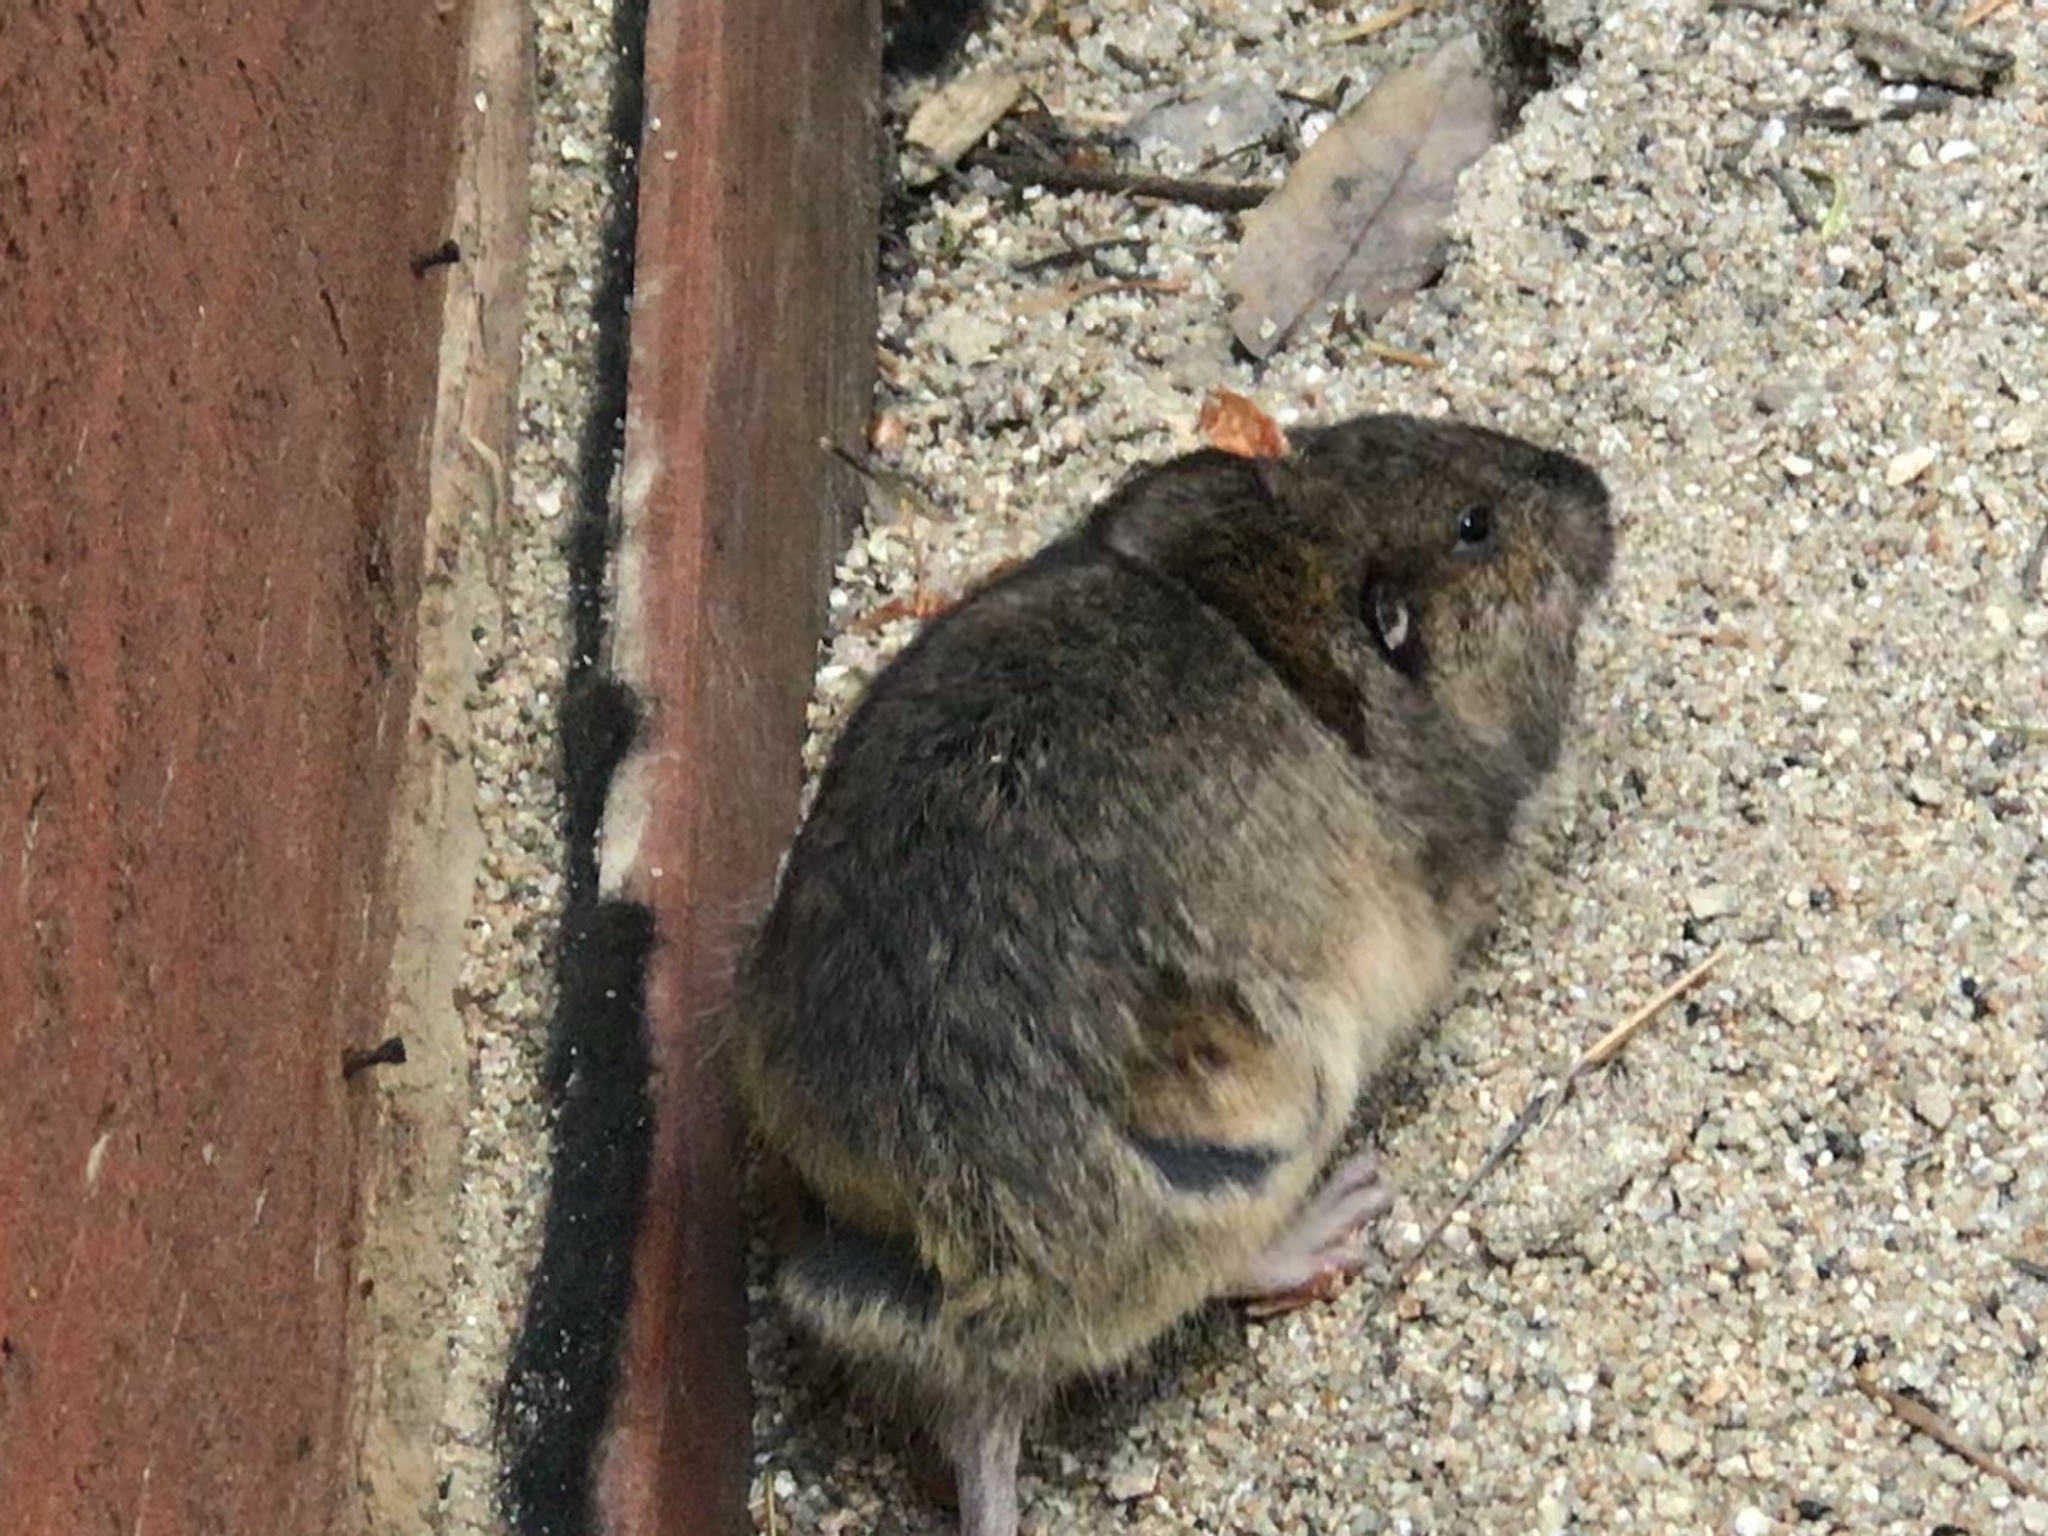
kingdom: Animalia
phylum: Chordata
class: Mammalia
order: Rodentia
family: Geomyidae
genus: Thomomys
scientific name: Thomomys bottae
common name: Botta's pocket gopher
